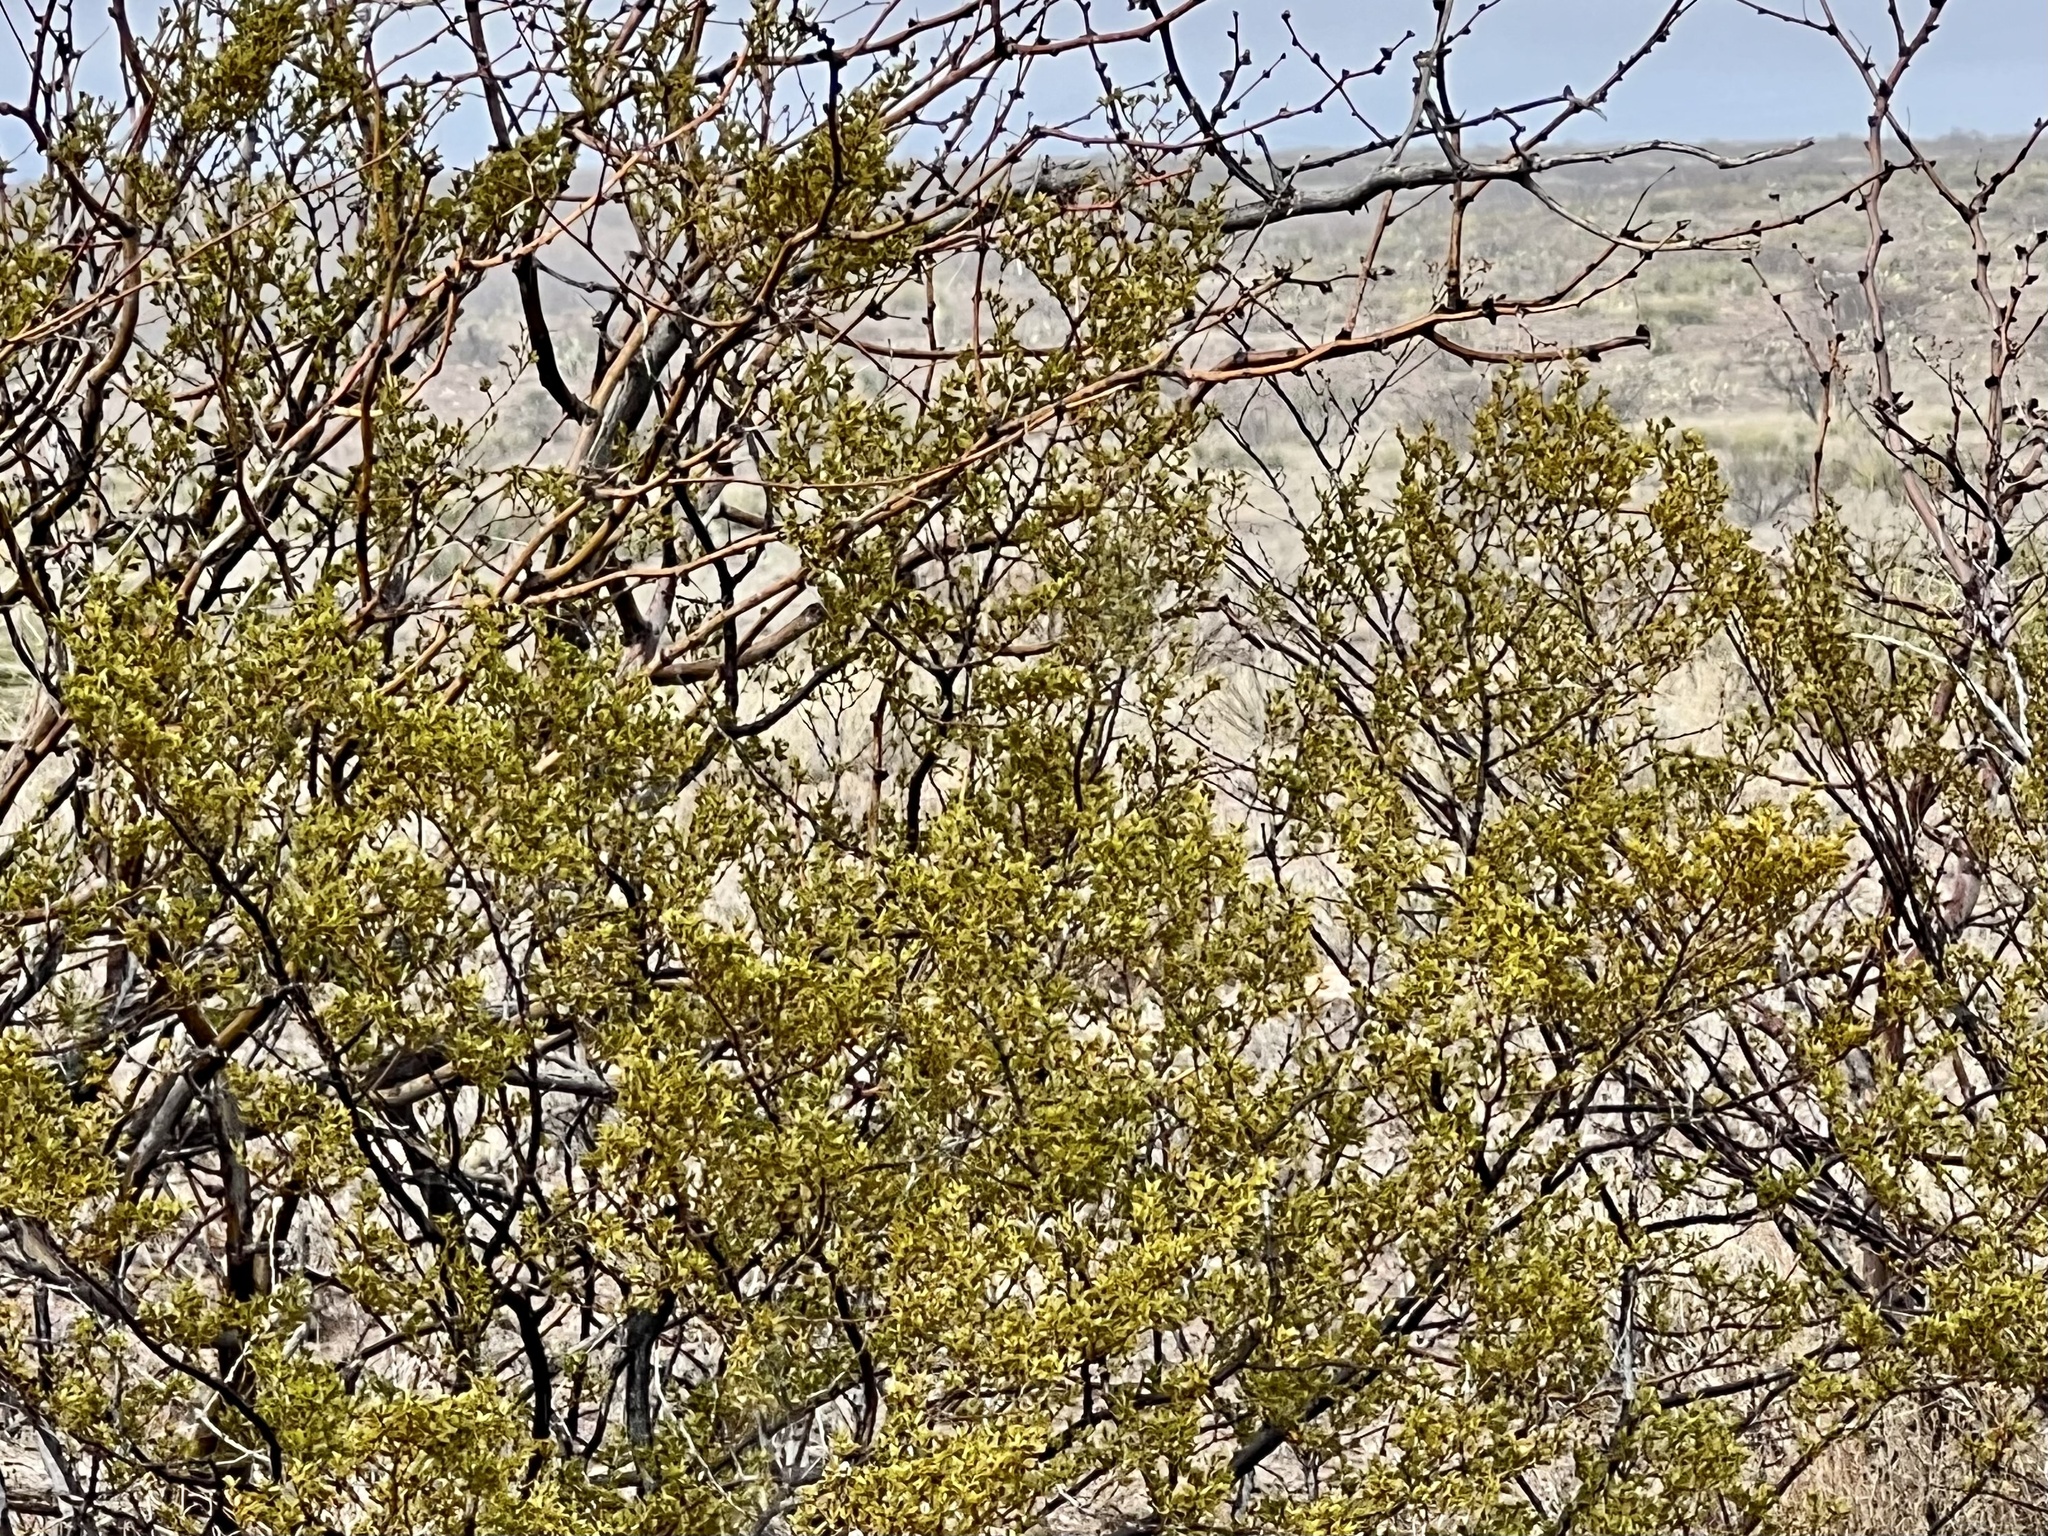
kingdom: Plantae
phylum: Tracheophyta
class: Magnoliopsida
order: Zygophyllales
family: Zygophyllaceae
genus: Larrea
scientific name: Larrea tridentata
